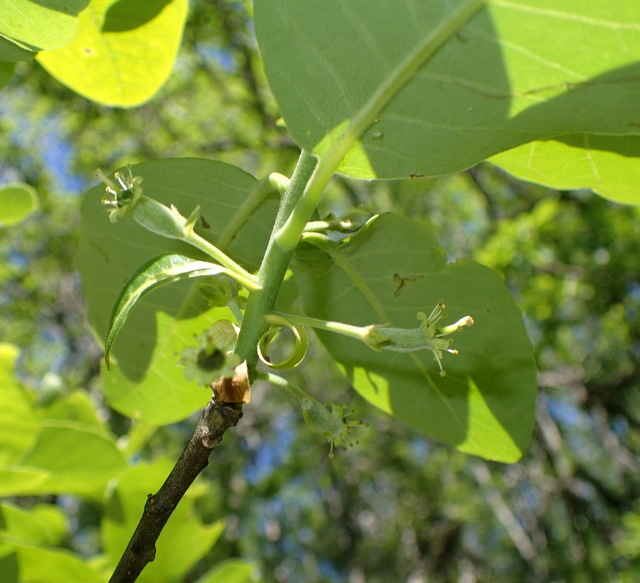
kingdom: Plantae
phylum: Tracheophyta
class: Magnoliopsida
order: Cornales
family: Nyssaceae
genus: Nyssa
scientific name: Nyssa ogeche
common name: Ogeechee tupelo
